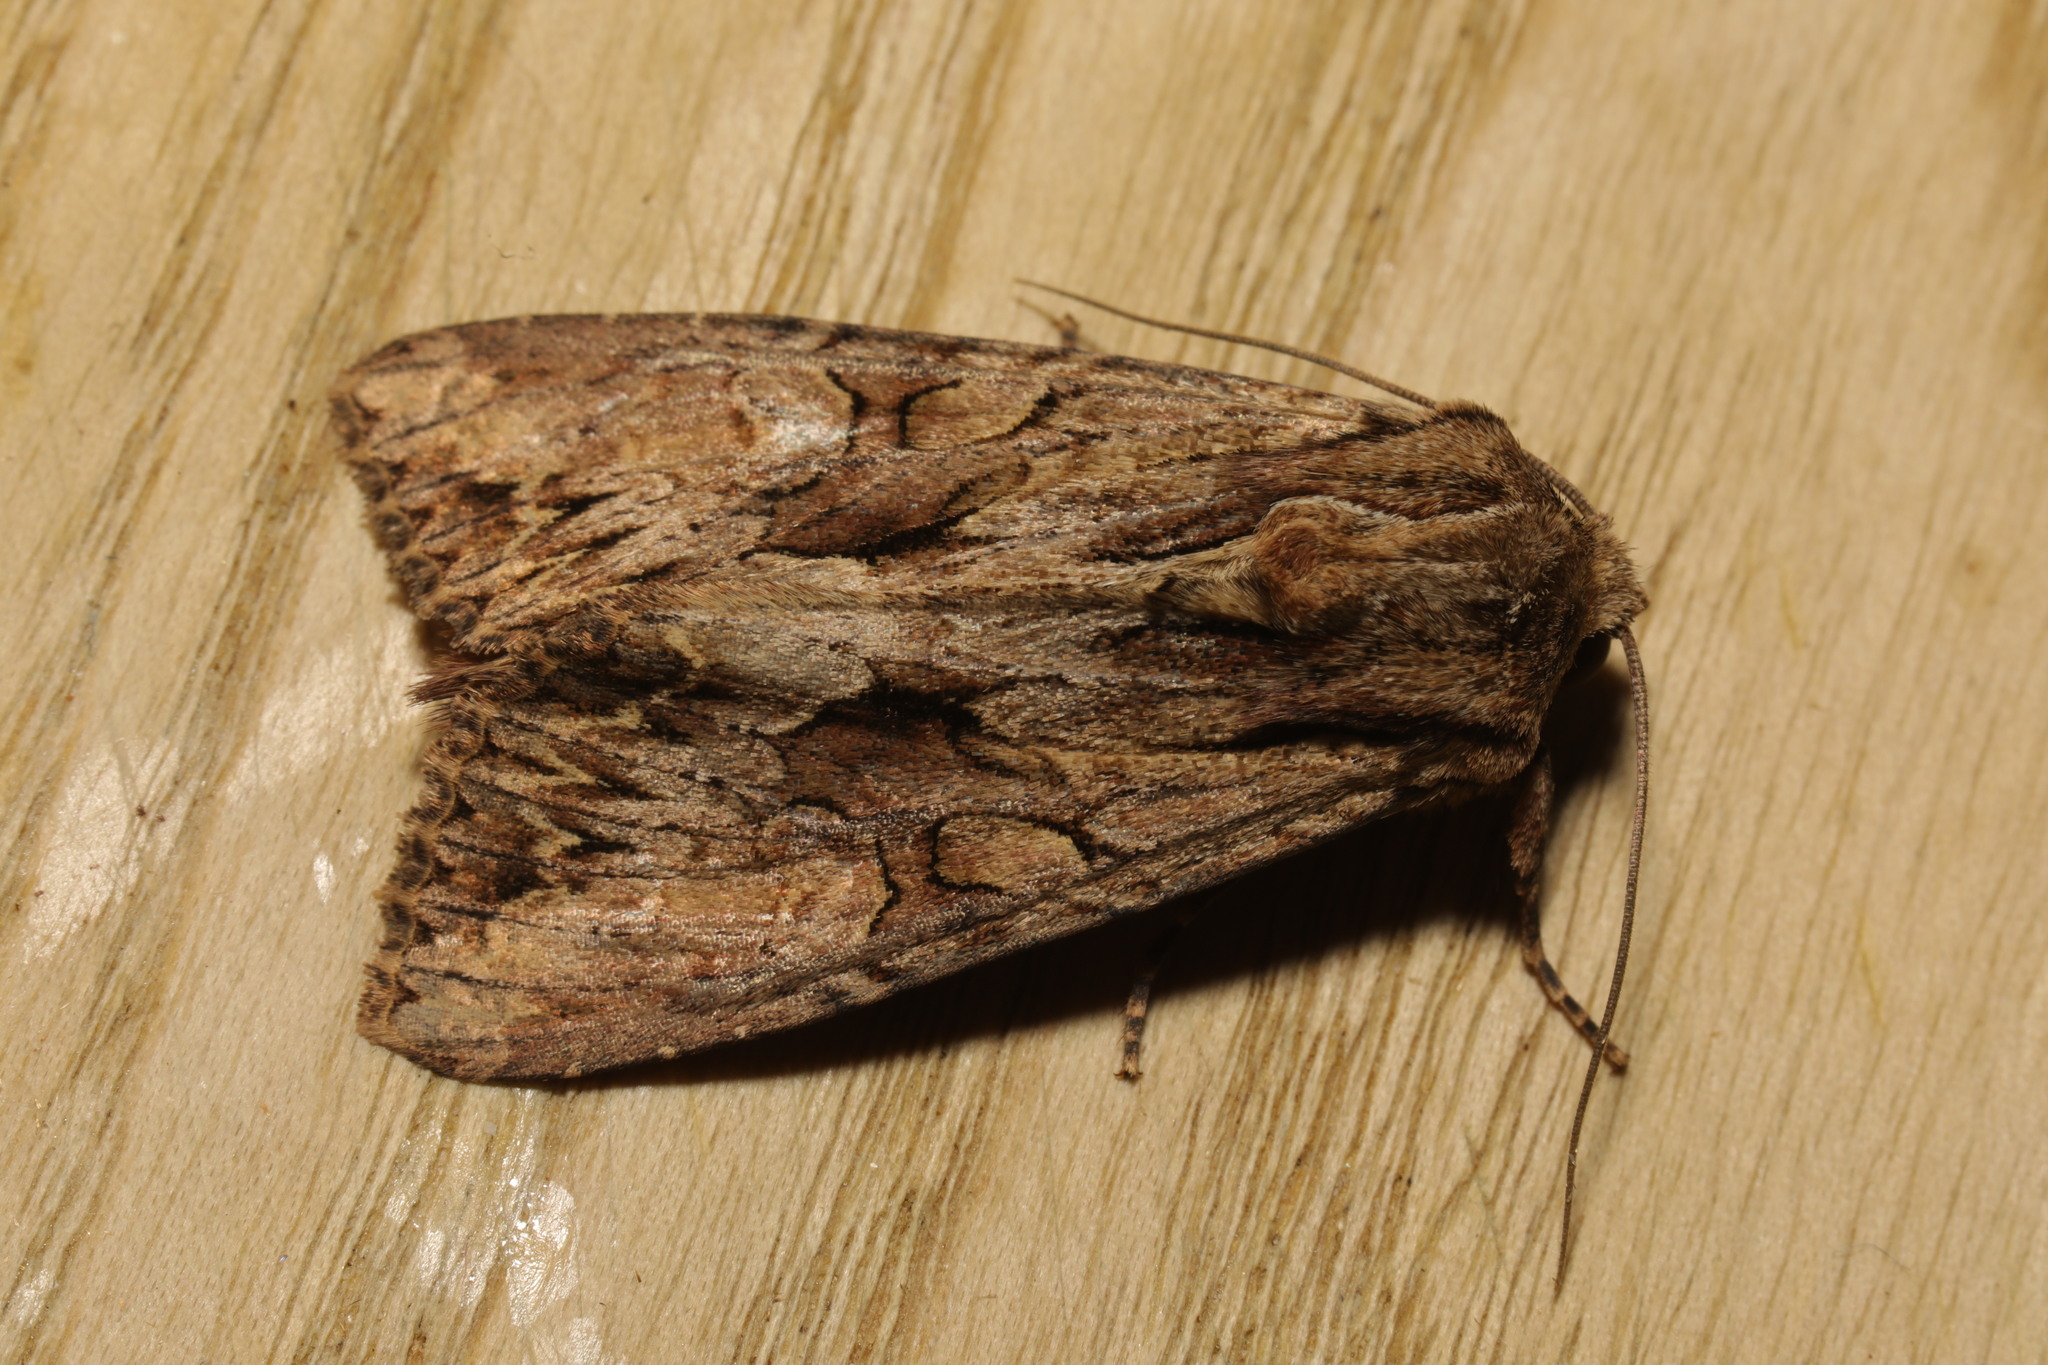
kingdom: Animalia
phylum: Arthropoda
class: Insecta
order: Lepidoptera
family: Noctuidae
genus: Apamea
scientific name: Apamea monoglypha
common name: Dark arches
